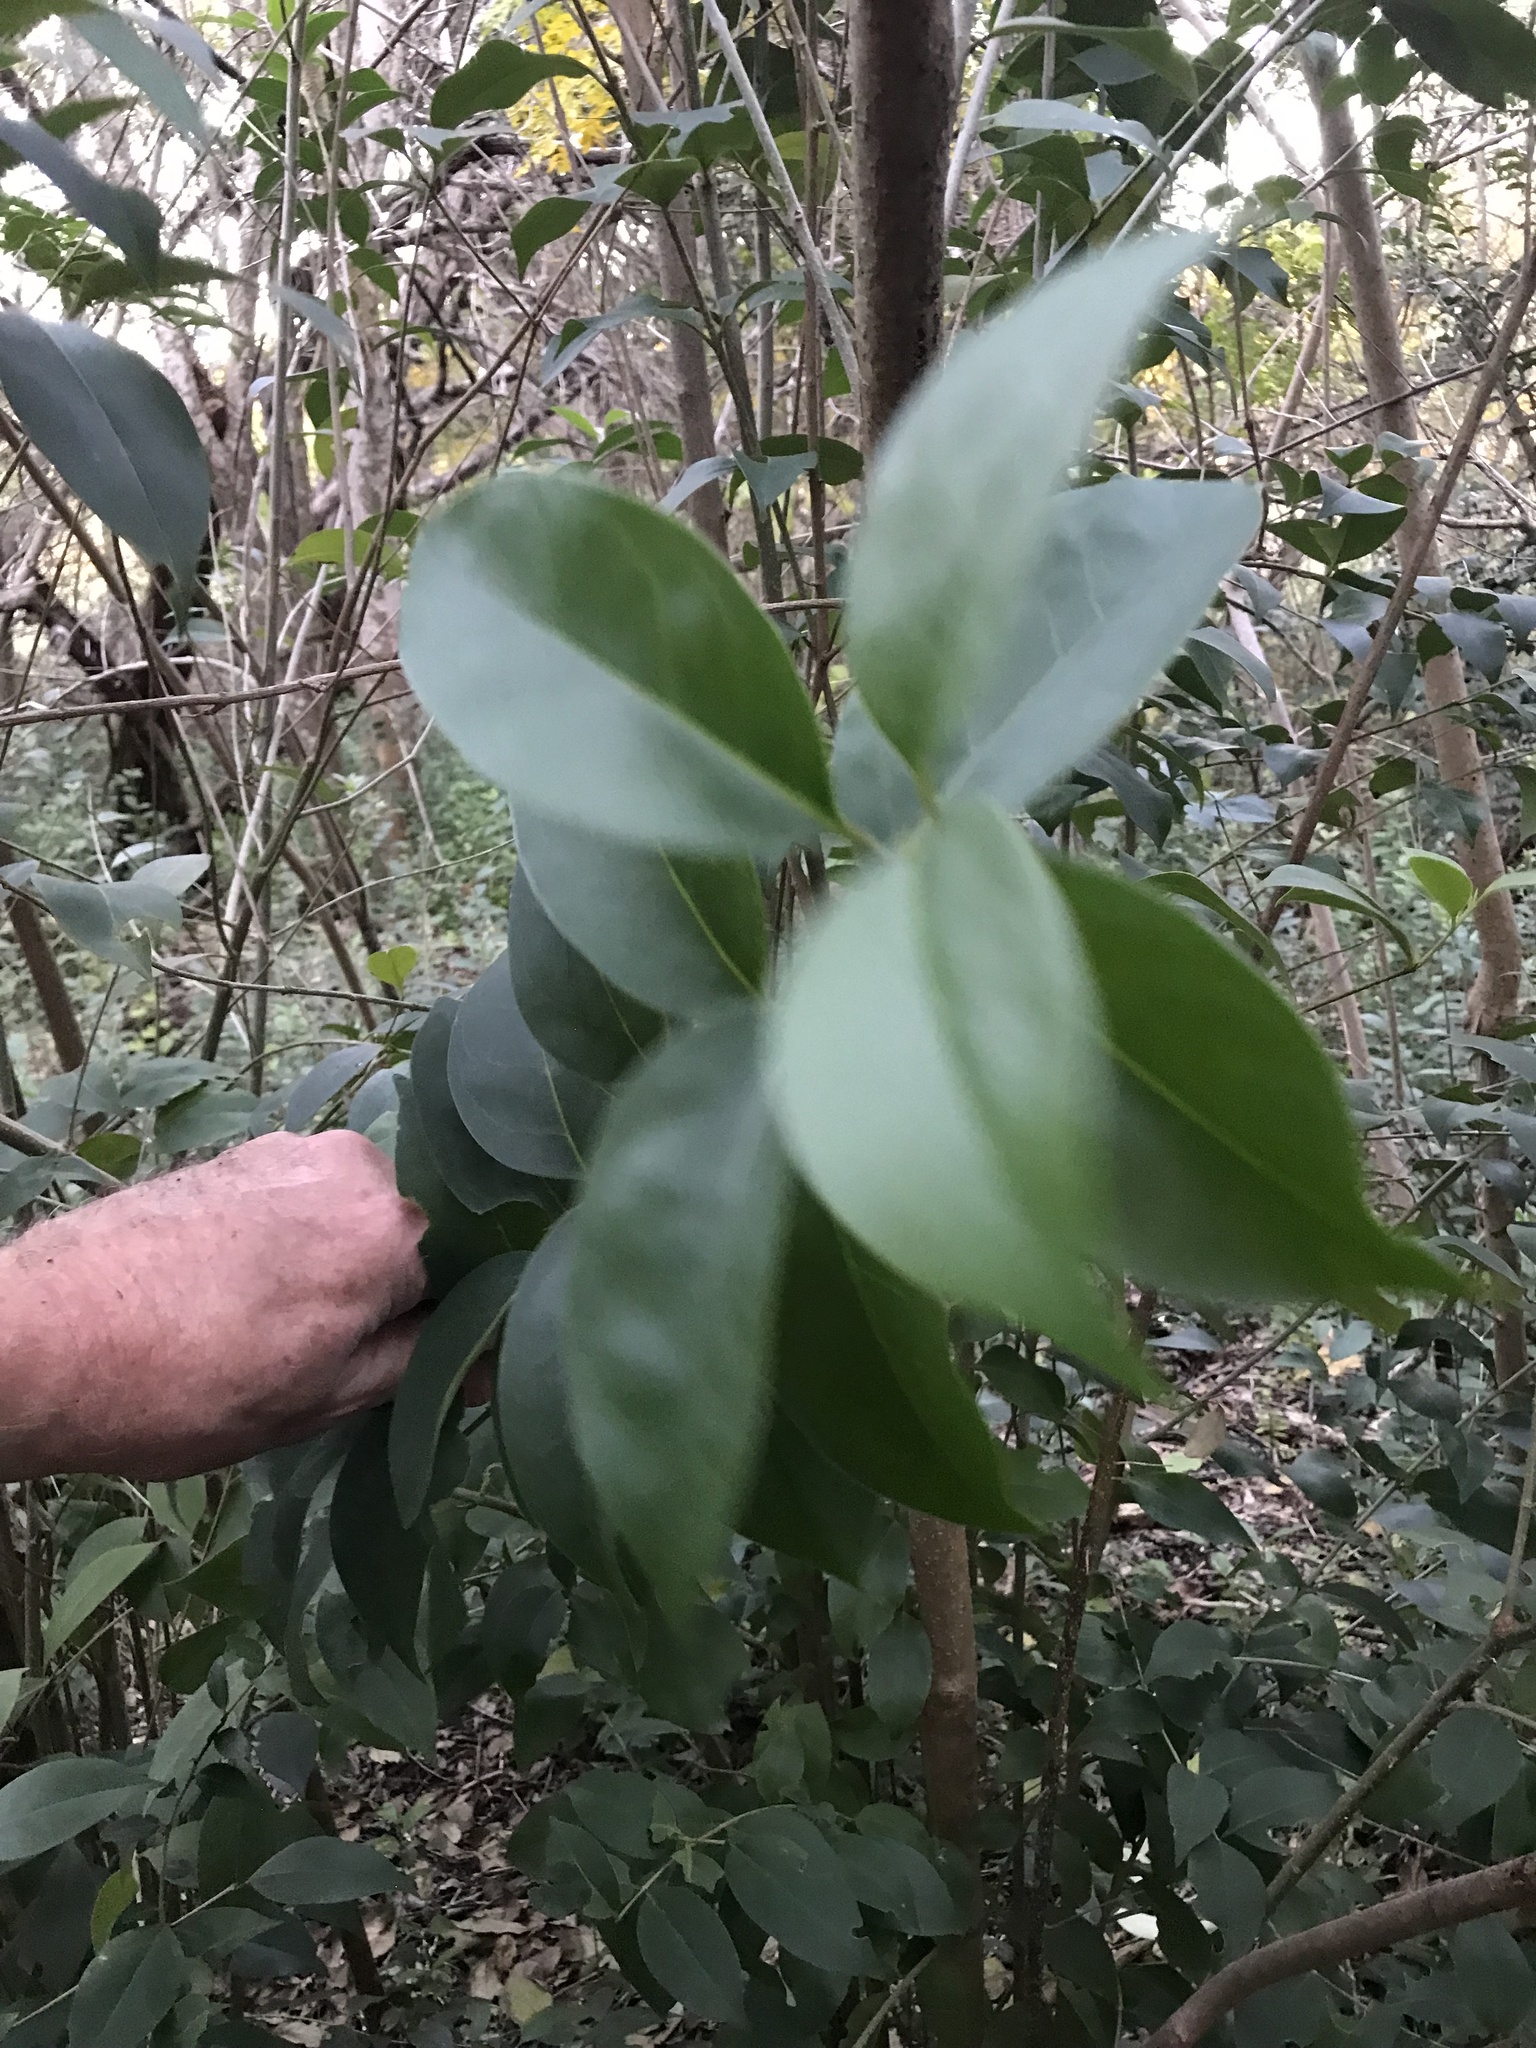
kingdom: Plantae
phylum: Tracheophyta
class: Magnoliopsida
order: Lamiales
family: Oleaceae
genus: Ligustrum
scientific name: Ligustrum lucidum
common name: Glossy privet
